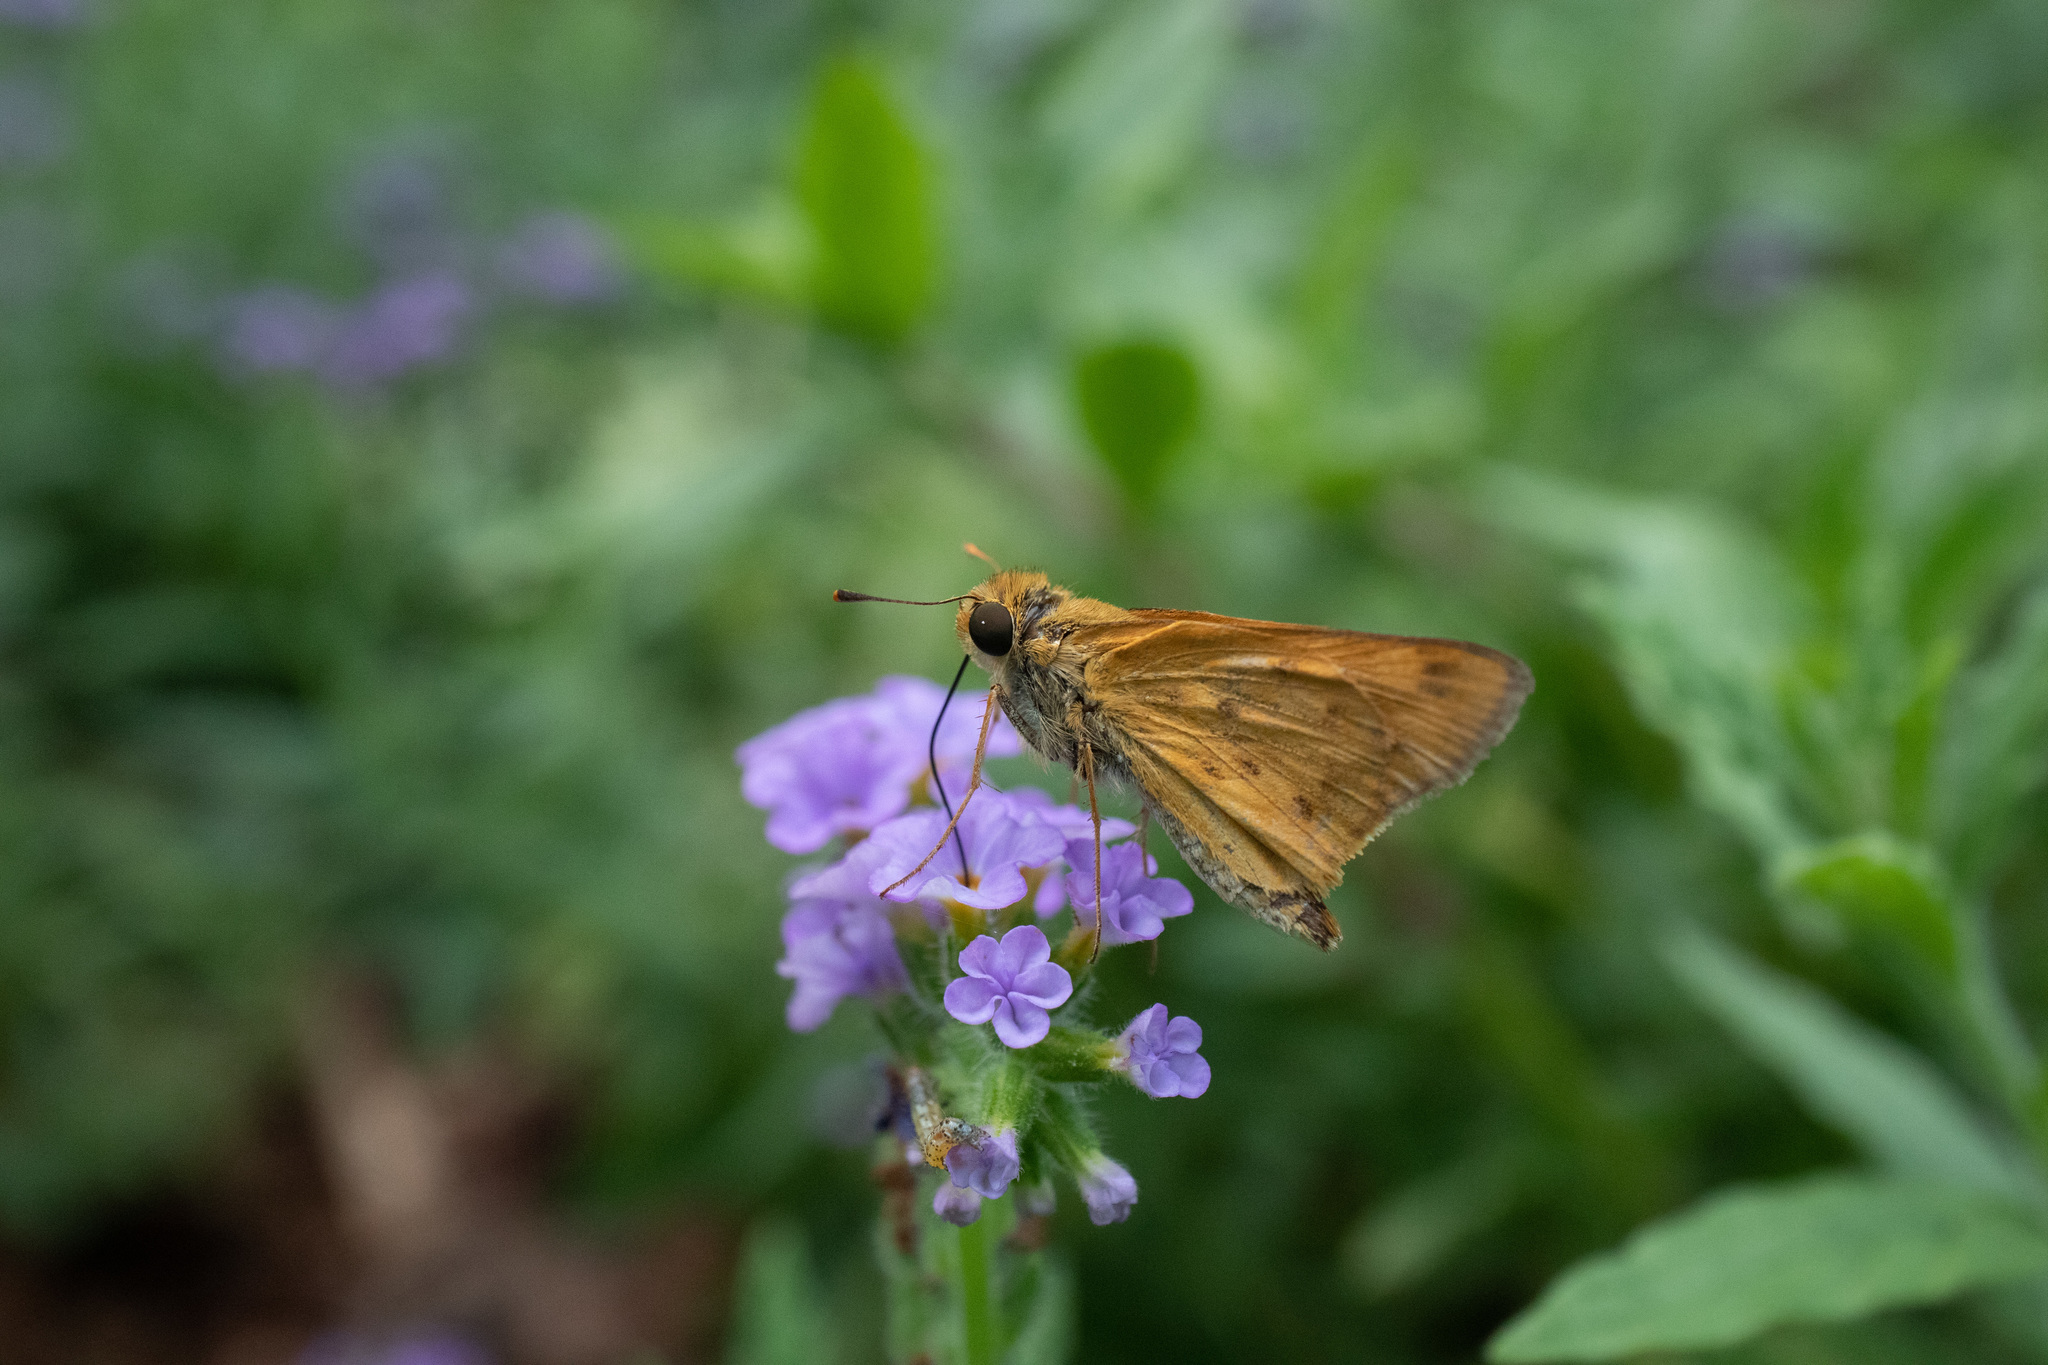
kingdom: Animalia
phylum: Arthropoda
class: Insecta
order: Lepidoptera
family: Hesperiidae
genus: Hylephila
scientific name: Hylephila phyleus
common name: Fiery skipper
